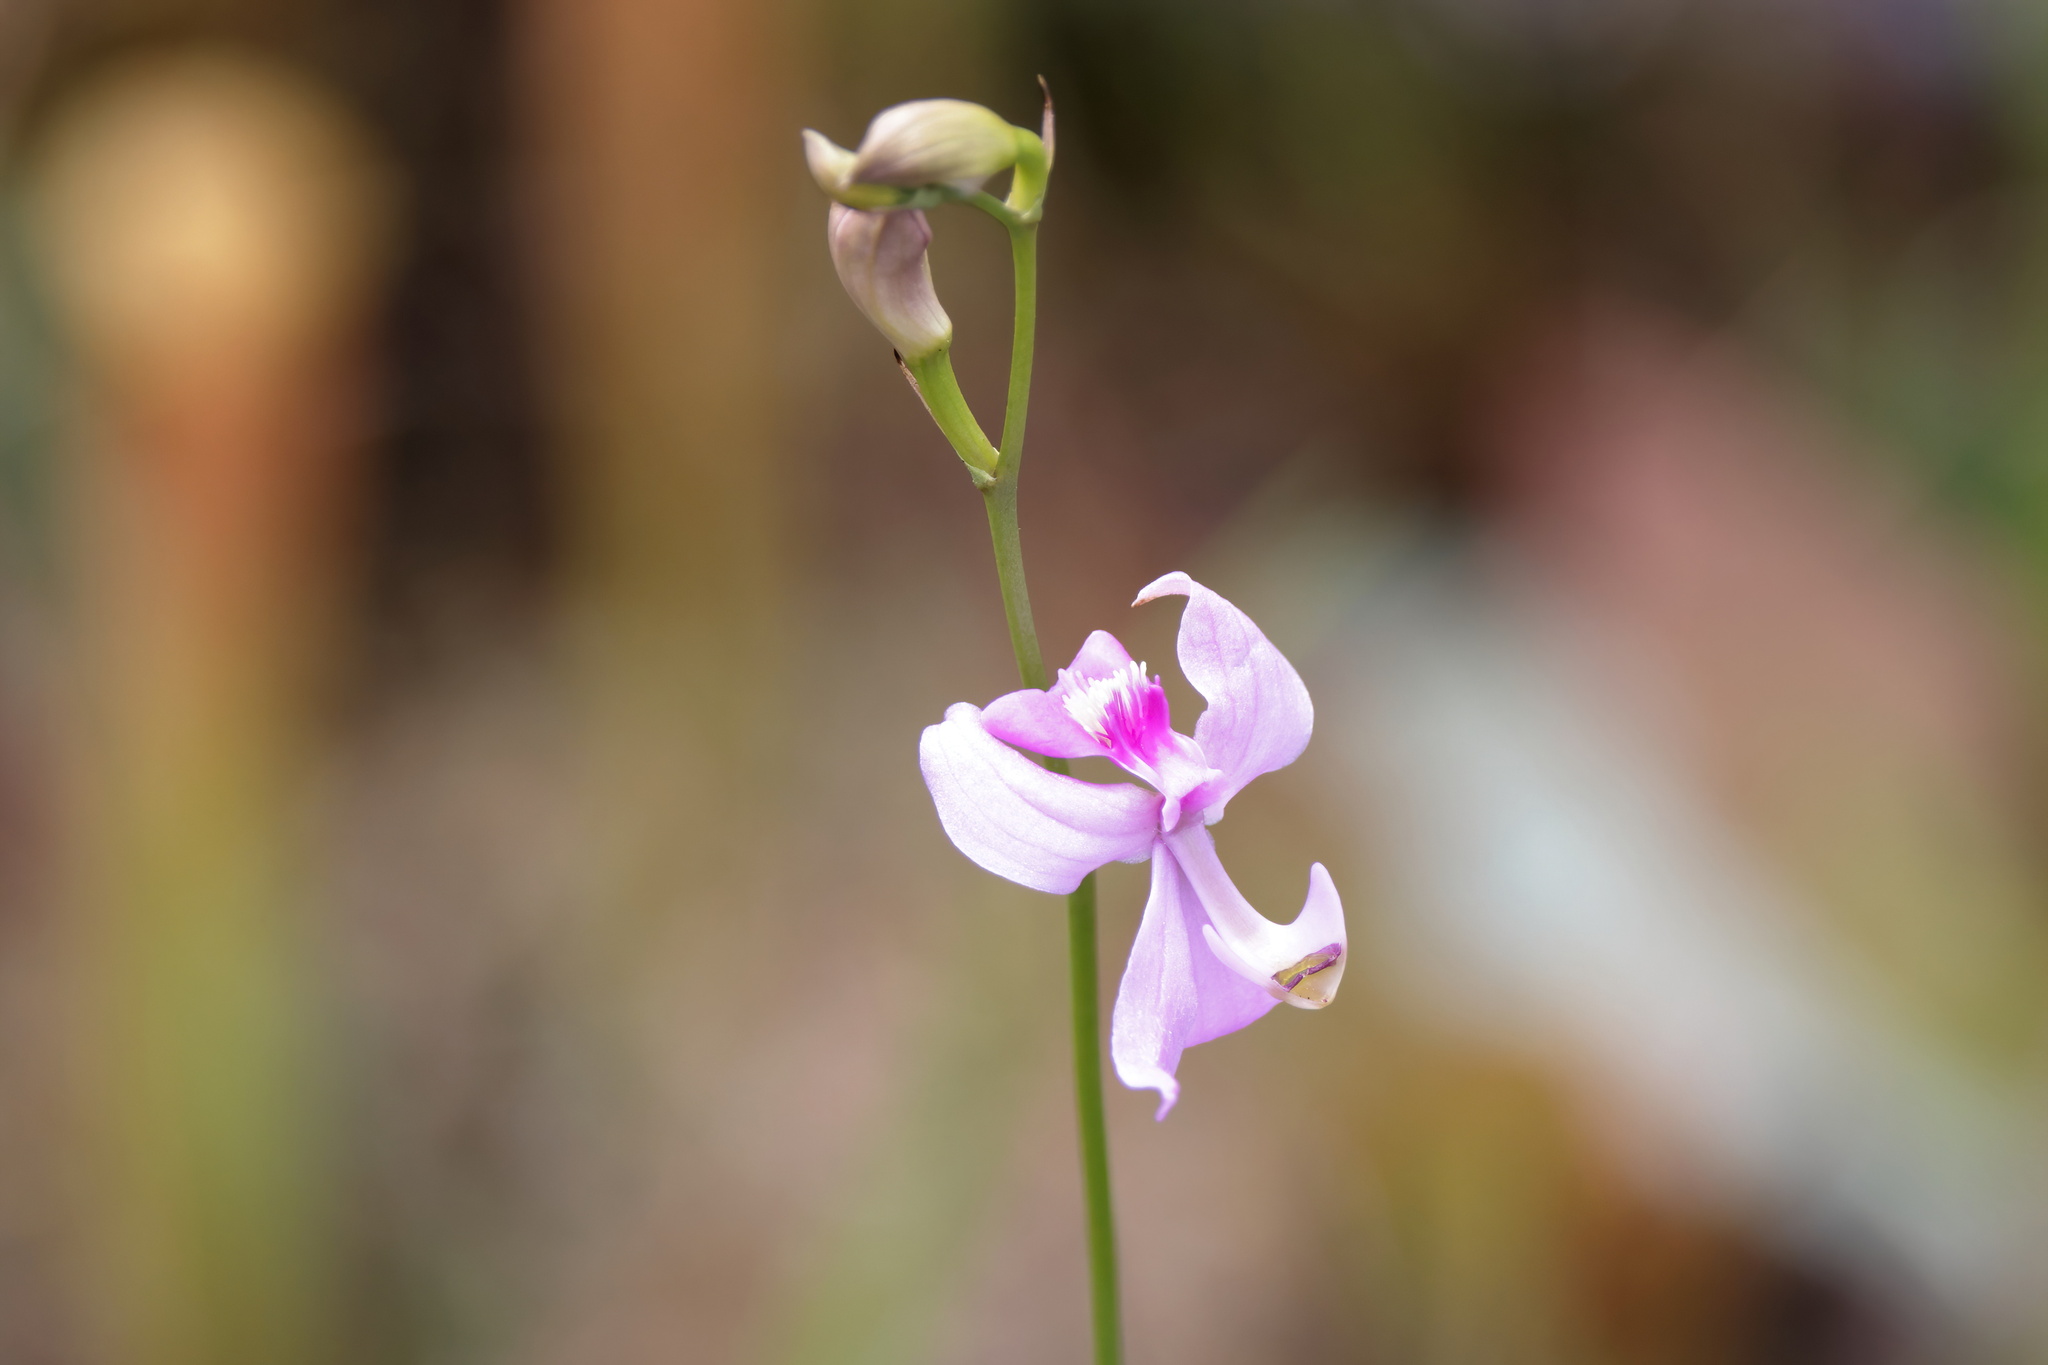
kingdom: Plantae
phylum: Tracheophyta
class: Liliopsida
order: Asparagales
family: Orchidaceae
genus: Calopogon
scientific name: Calopogon pallidus
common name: Pale grasspink
